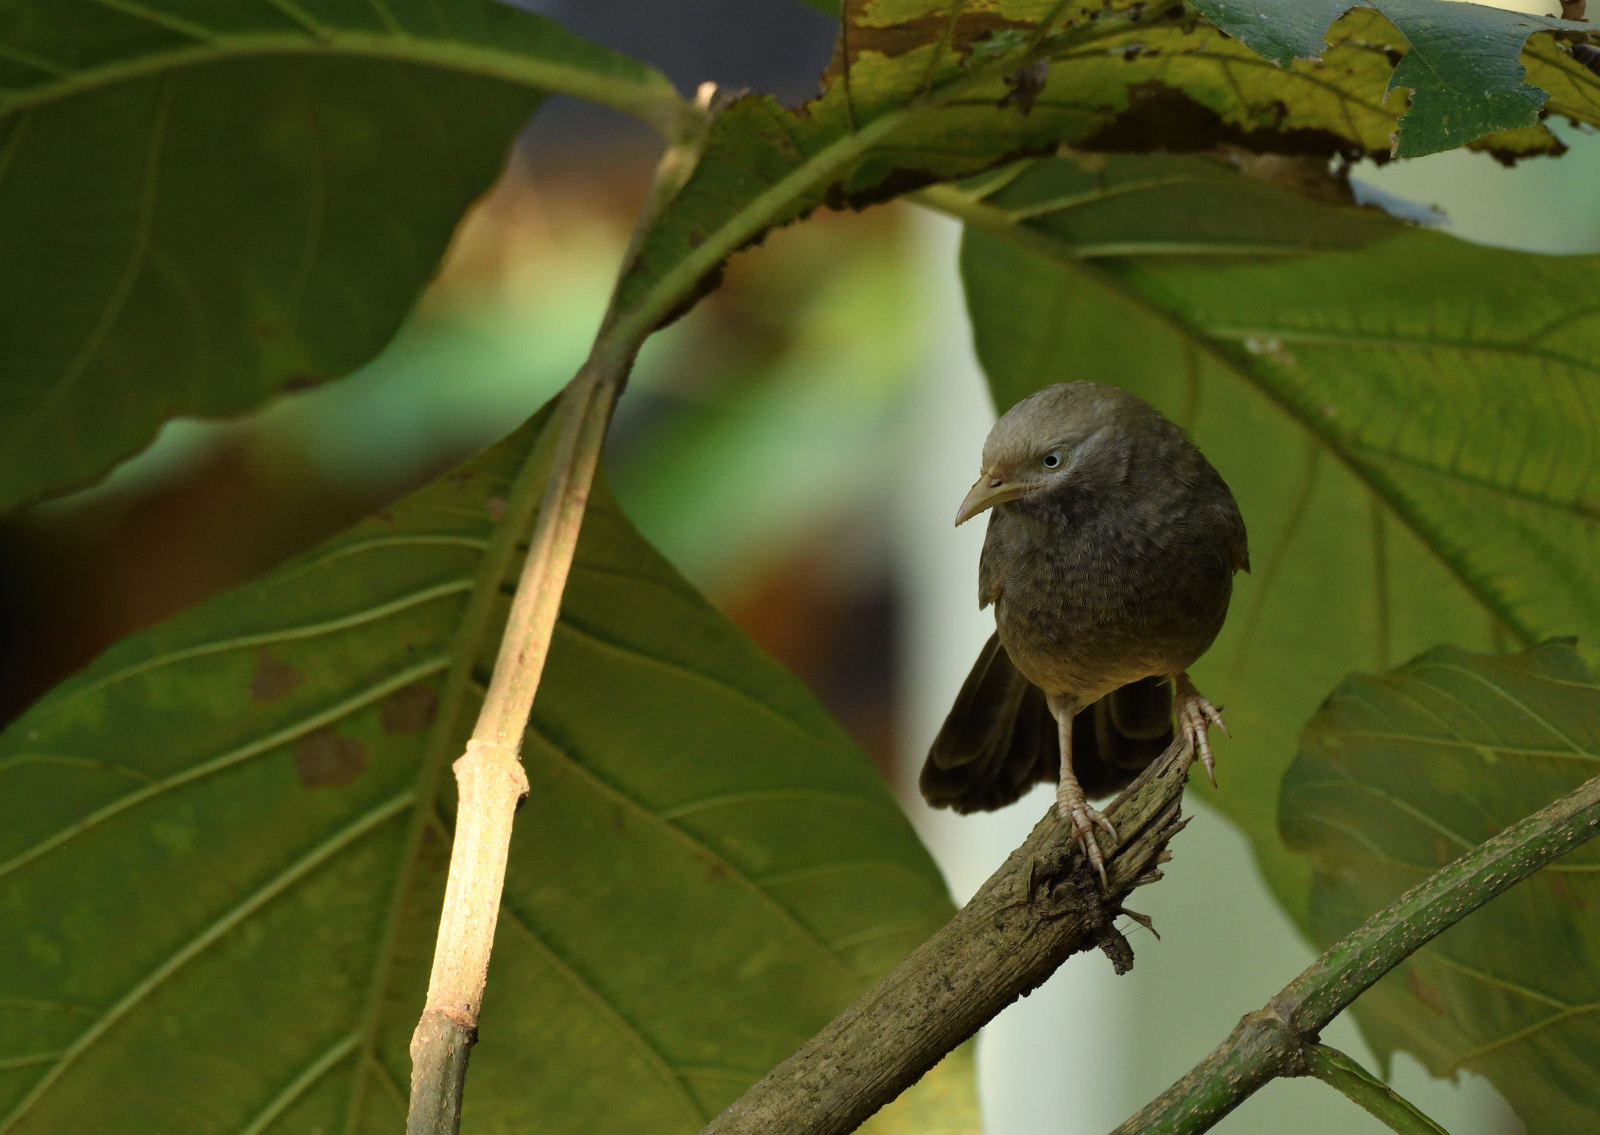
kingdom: Animalia
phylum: Chordata
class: Aves
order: Passeriformes
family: Leiothrichidae
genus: Turdoides
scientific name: Turdoides affinis
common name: Yellow-billed babbler
